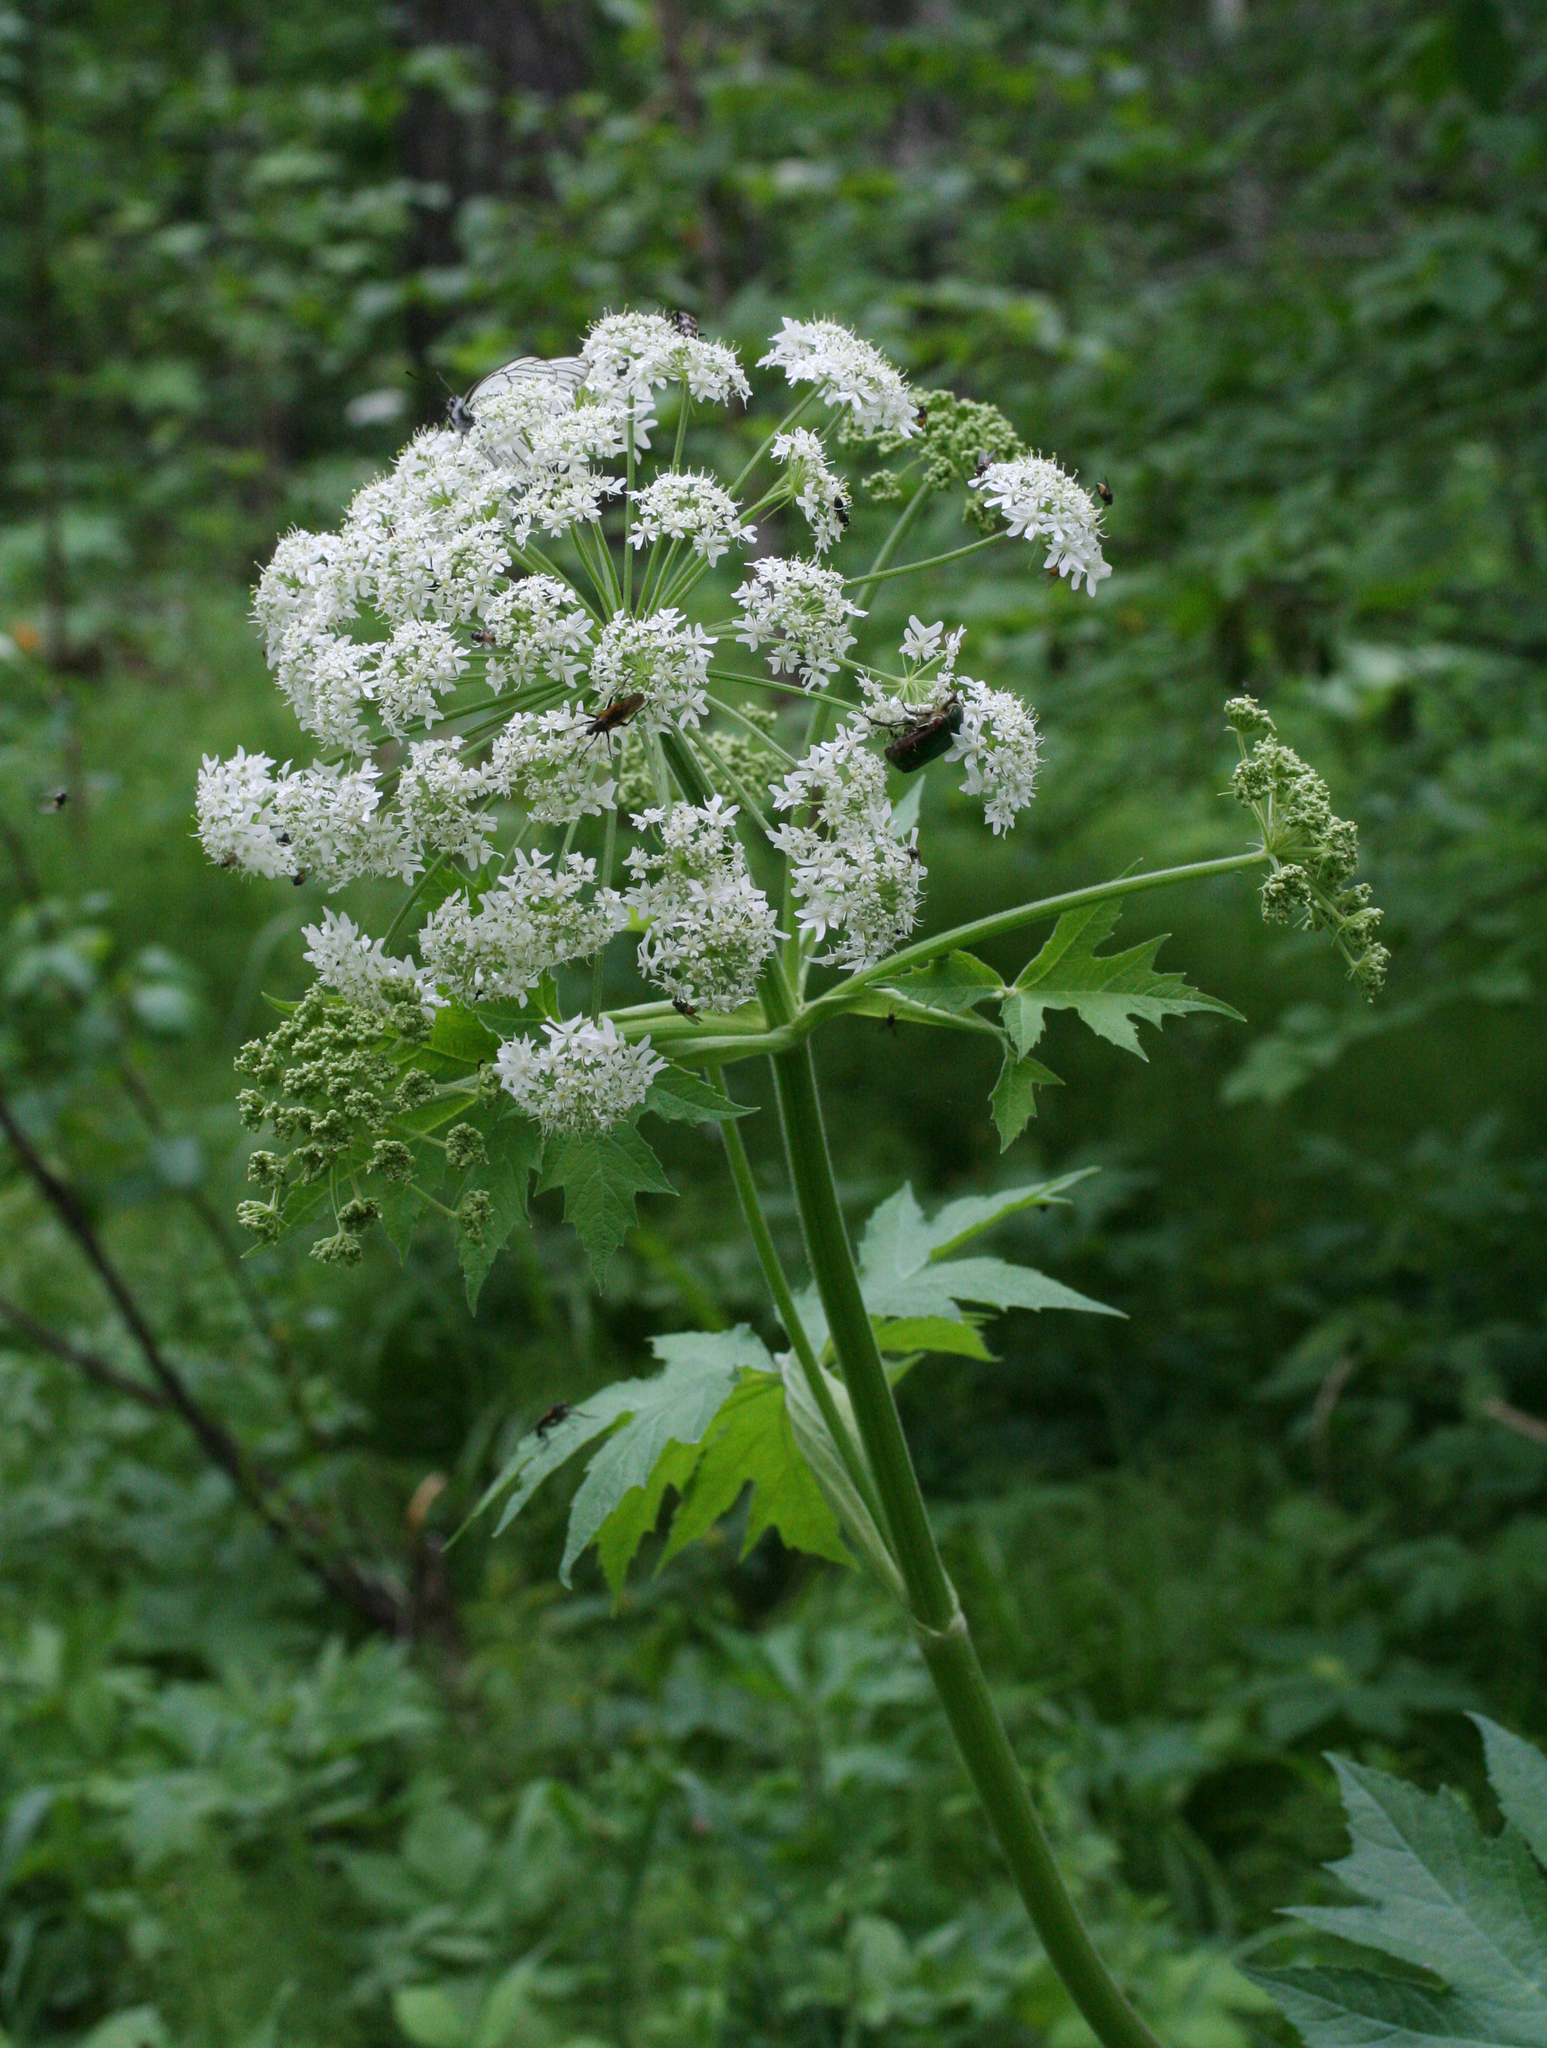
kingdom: Plantae
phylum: Tracheophyta
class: Magnoliopsida
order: Apiales
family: Apiaceae
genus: Heracleum
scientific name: Heracleum dissectum
